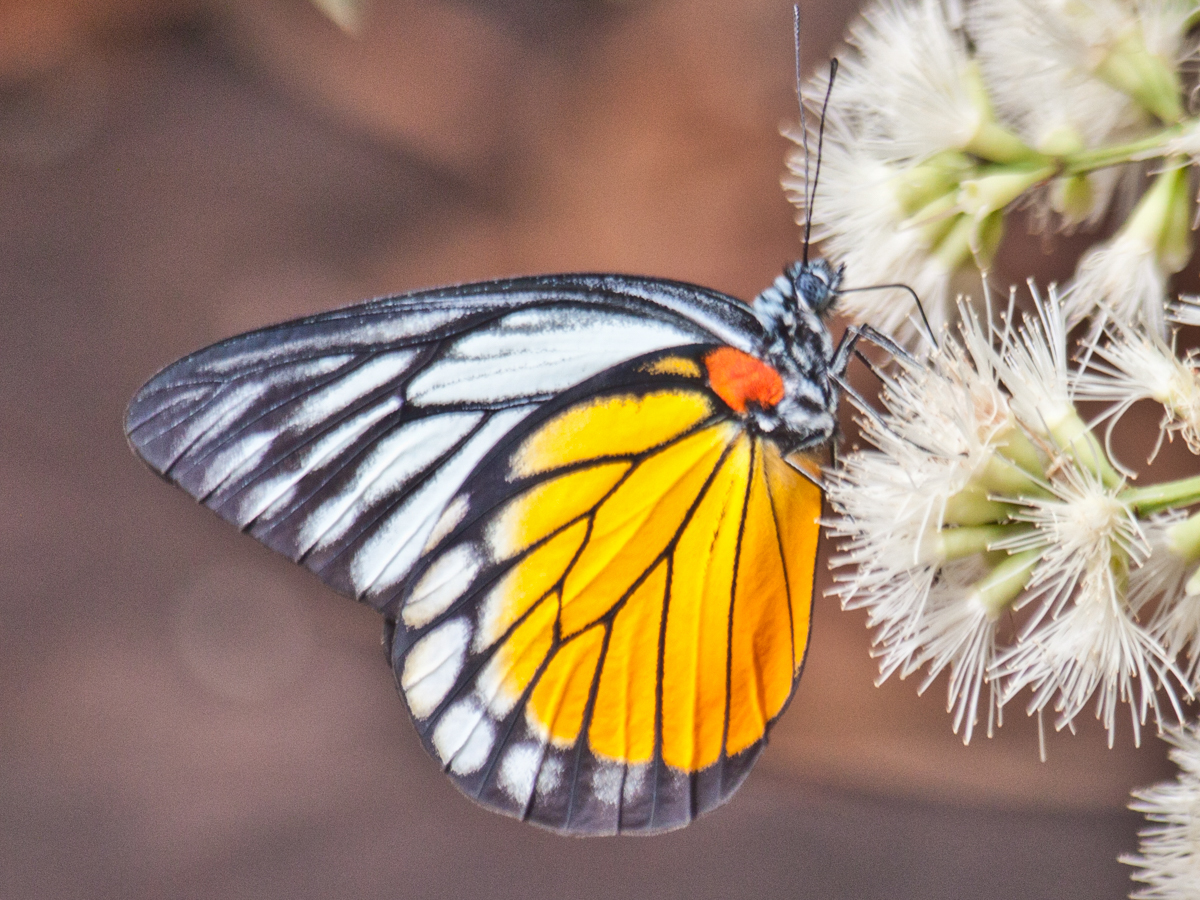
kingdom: Animalia
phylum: Arthropoda
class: Insecta
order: Lepidoptera
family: Pieridae
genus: Prioneris
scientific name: Prioneris
